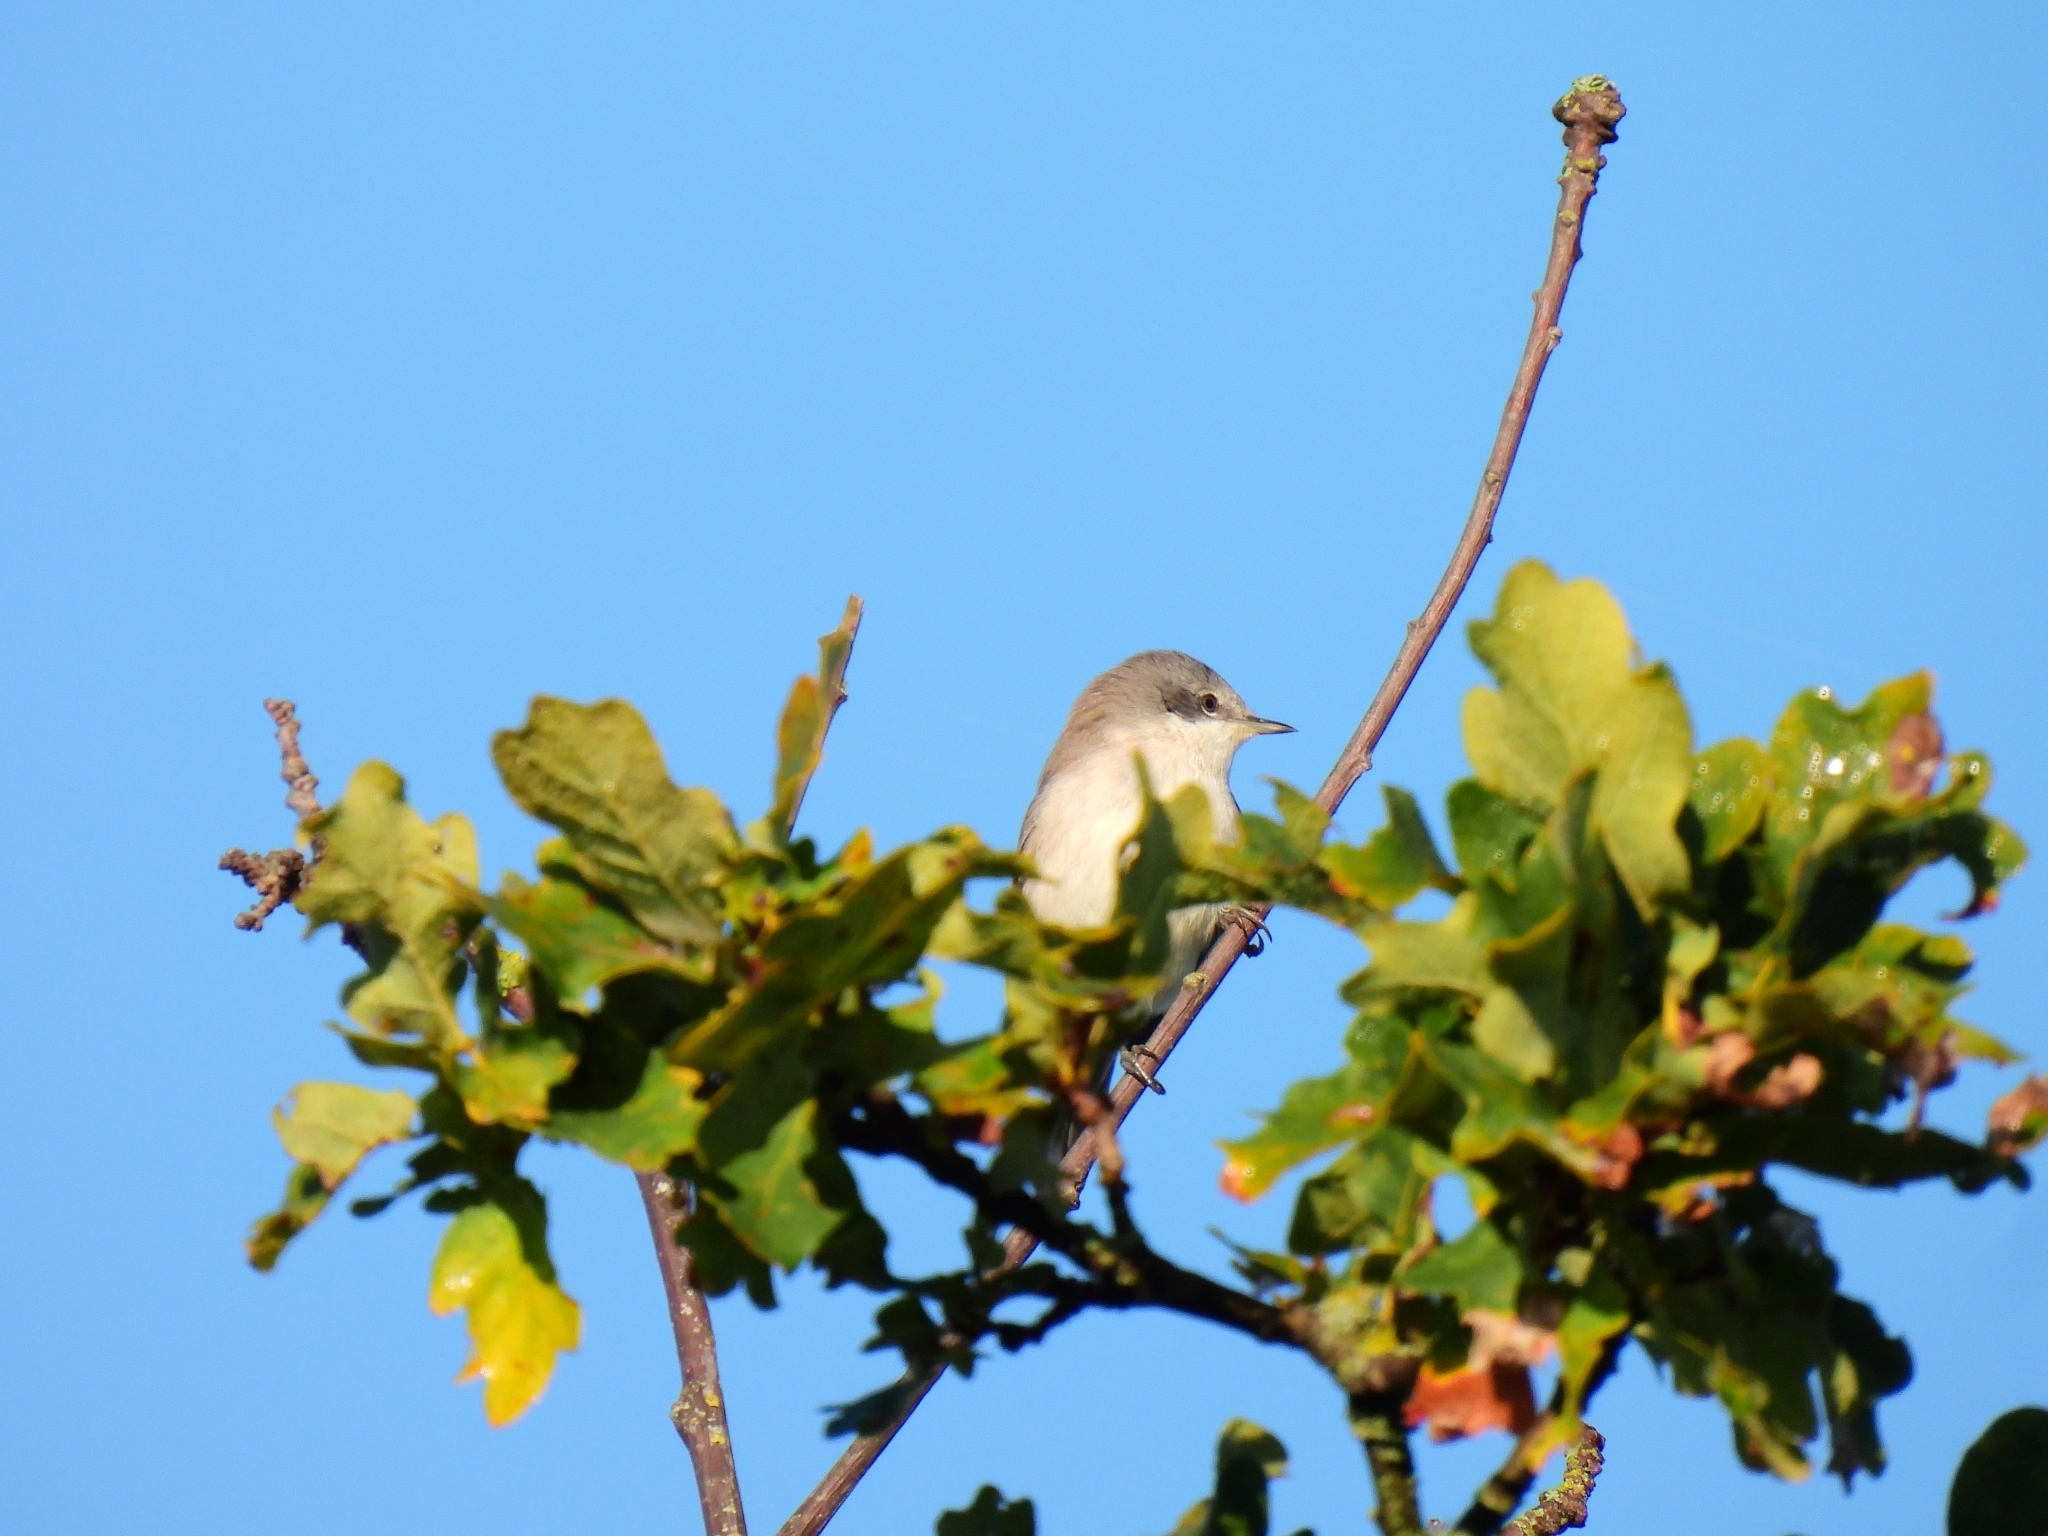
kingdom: Animalia
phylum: Chordata
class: Aves
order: Passeriformes
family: Sylviidae
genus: Sylvia
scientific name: Sylvia curruca
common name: Lesser whitethroat
